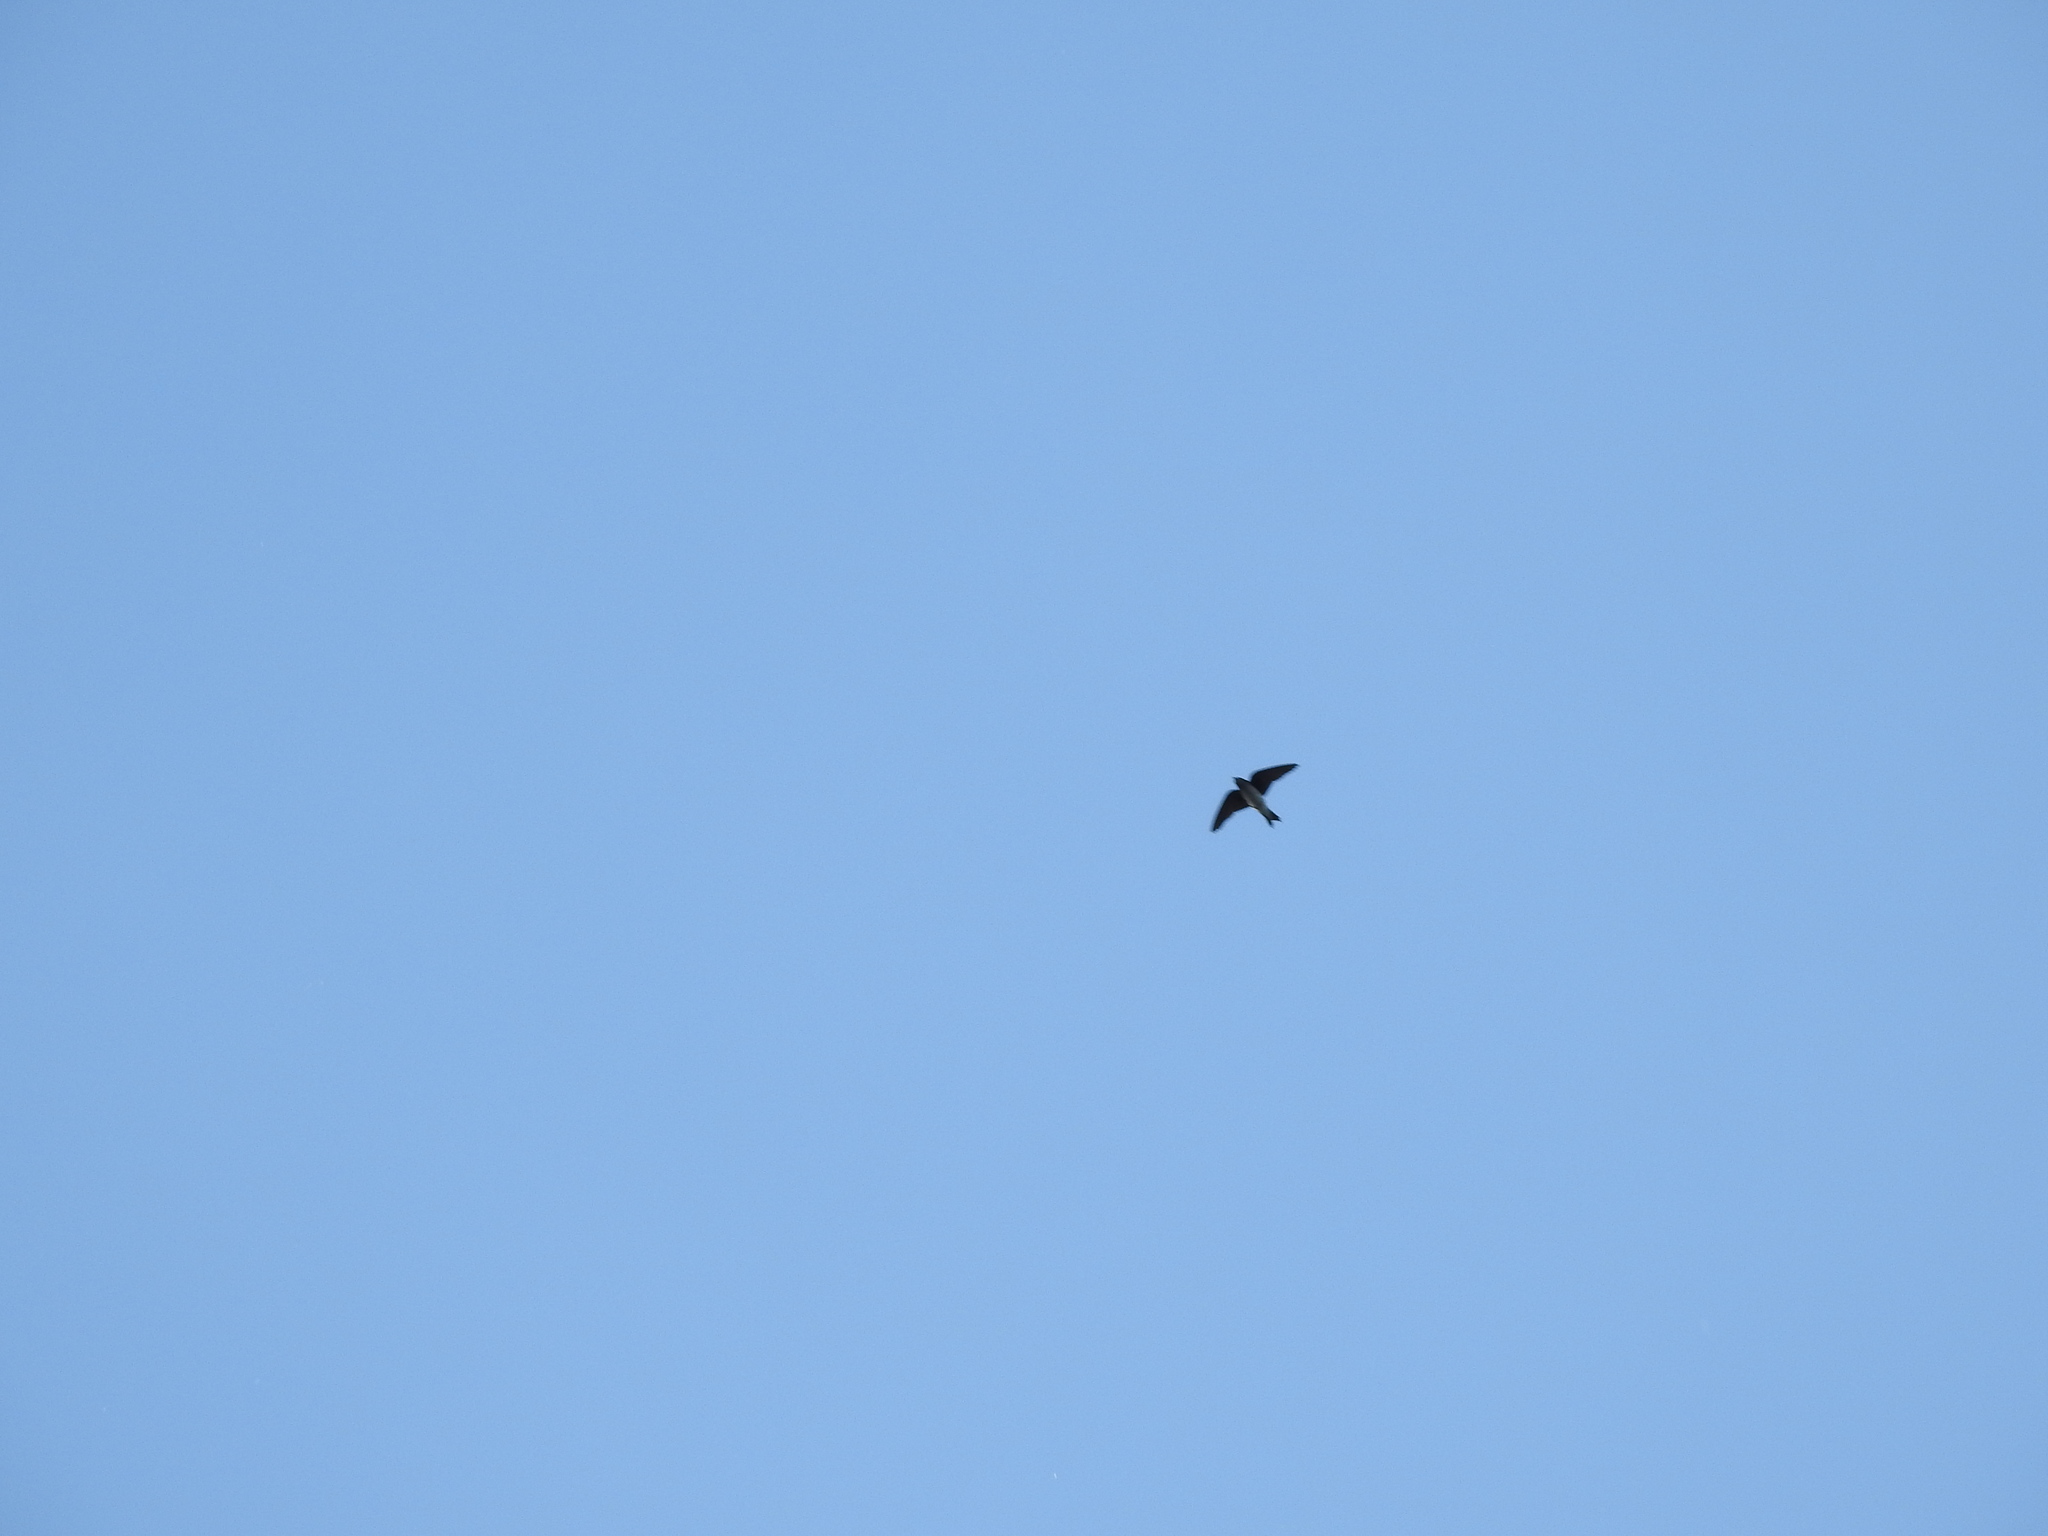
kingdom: Animalia
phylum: Chordata
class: Aves
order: Passeriformes
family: Hirundinidae
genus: Progne
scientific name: Progne chalybea
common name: Grey-breasted martin
